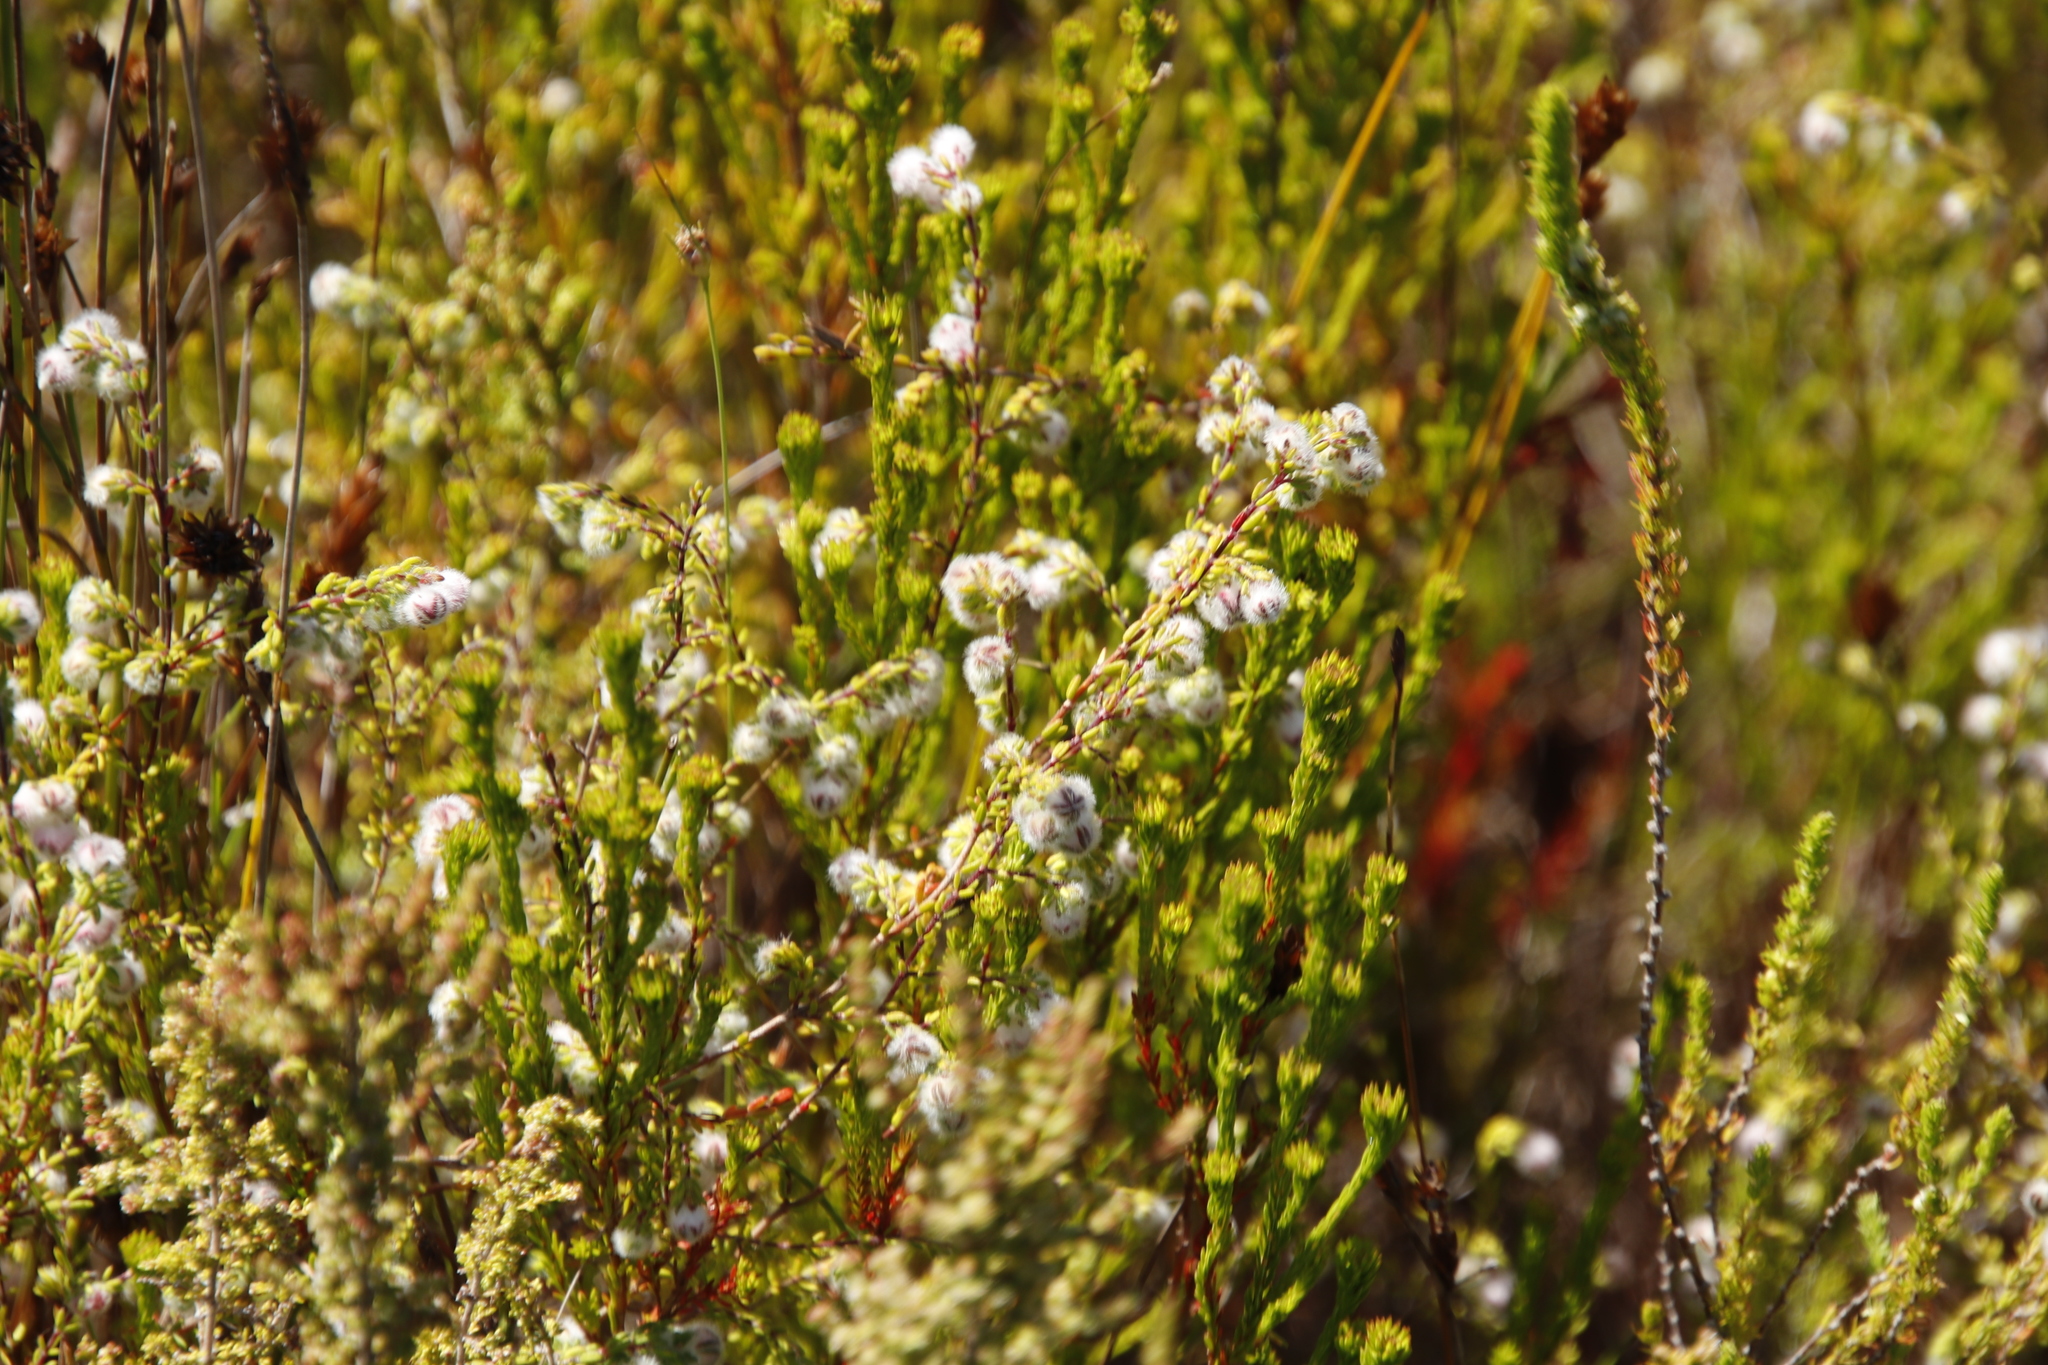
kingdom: Plantae
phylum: Tracheophyta
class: Magnoliopsida
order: Ericales
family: Ericaceae
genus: Erica
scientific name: Erica bruniades
